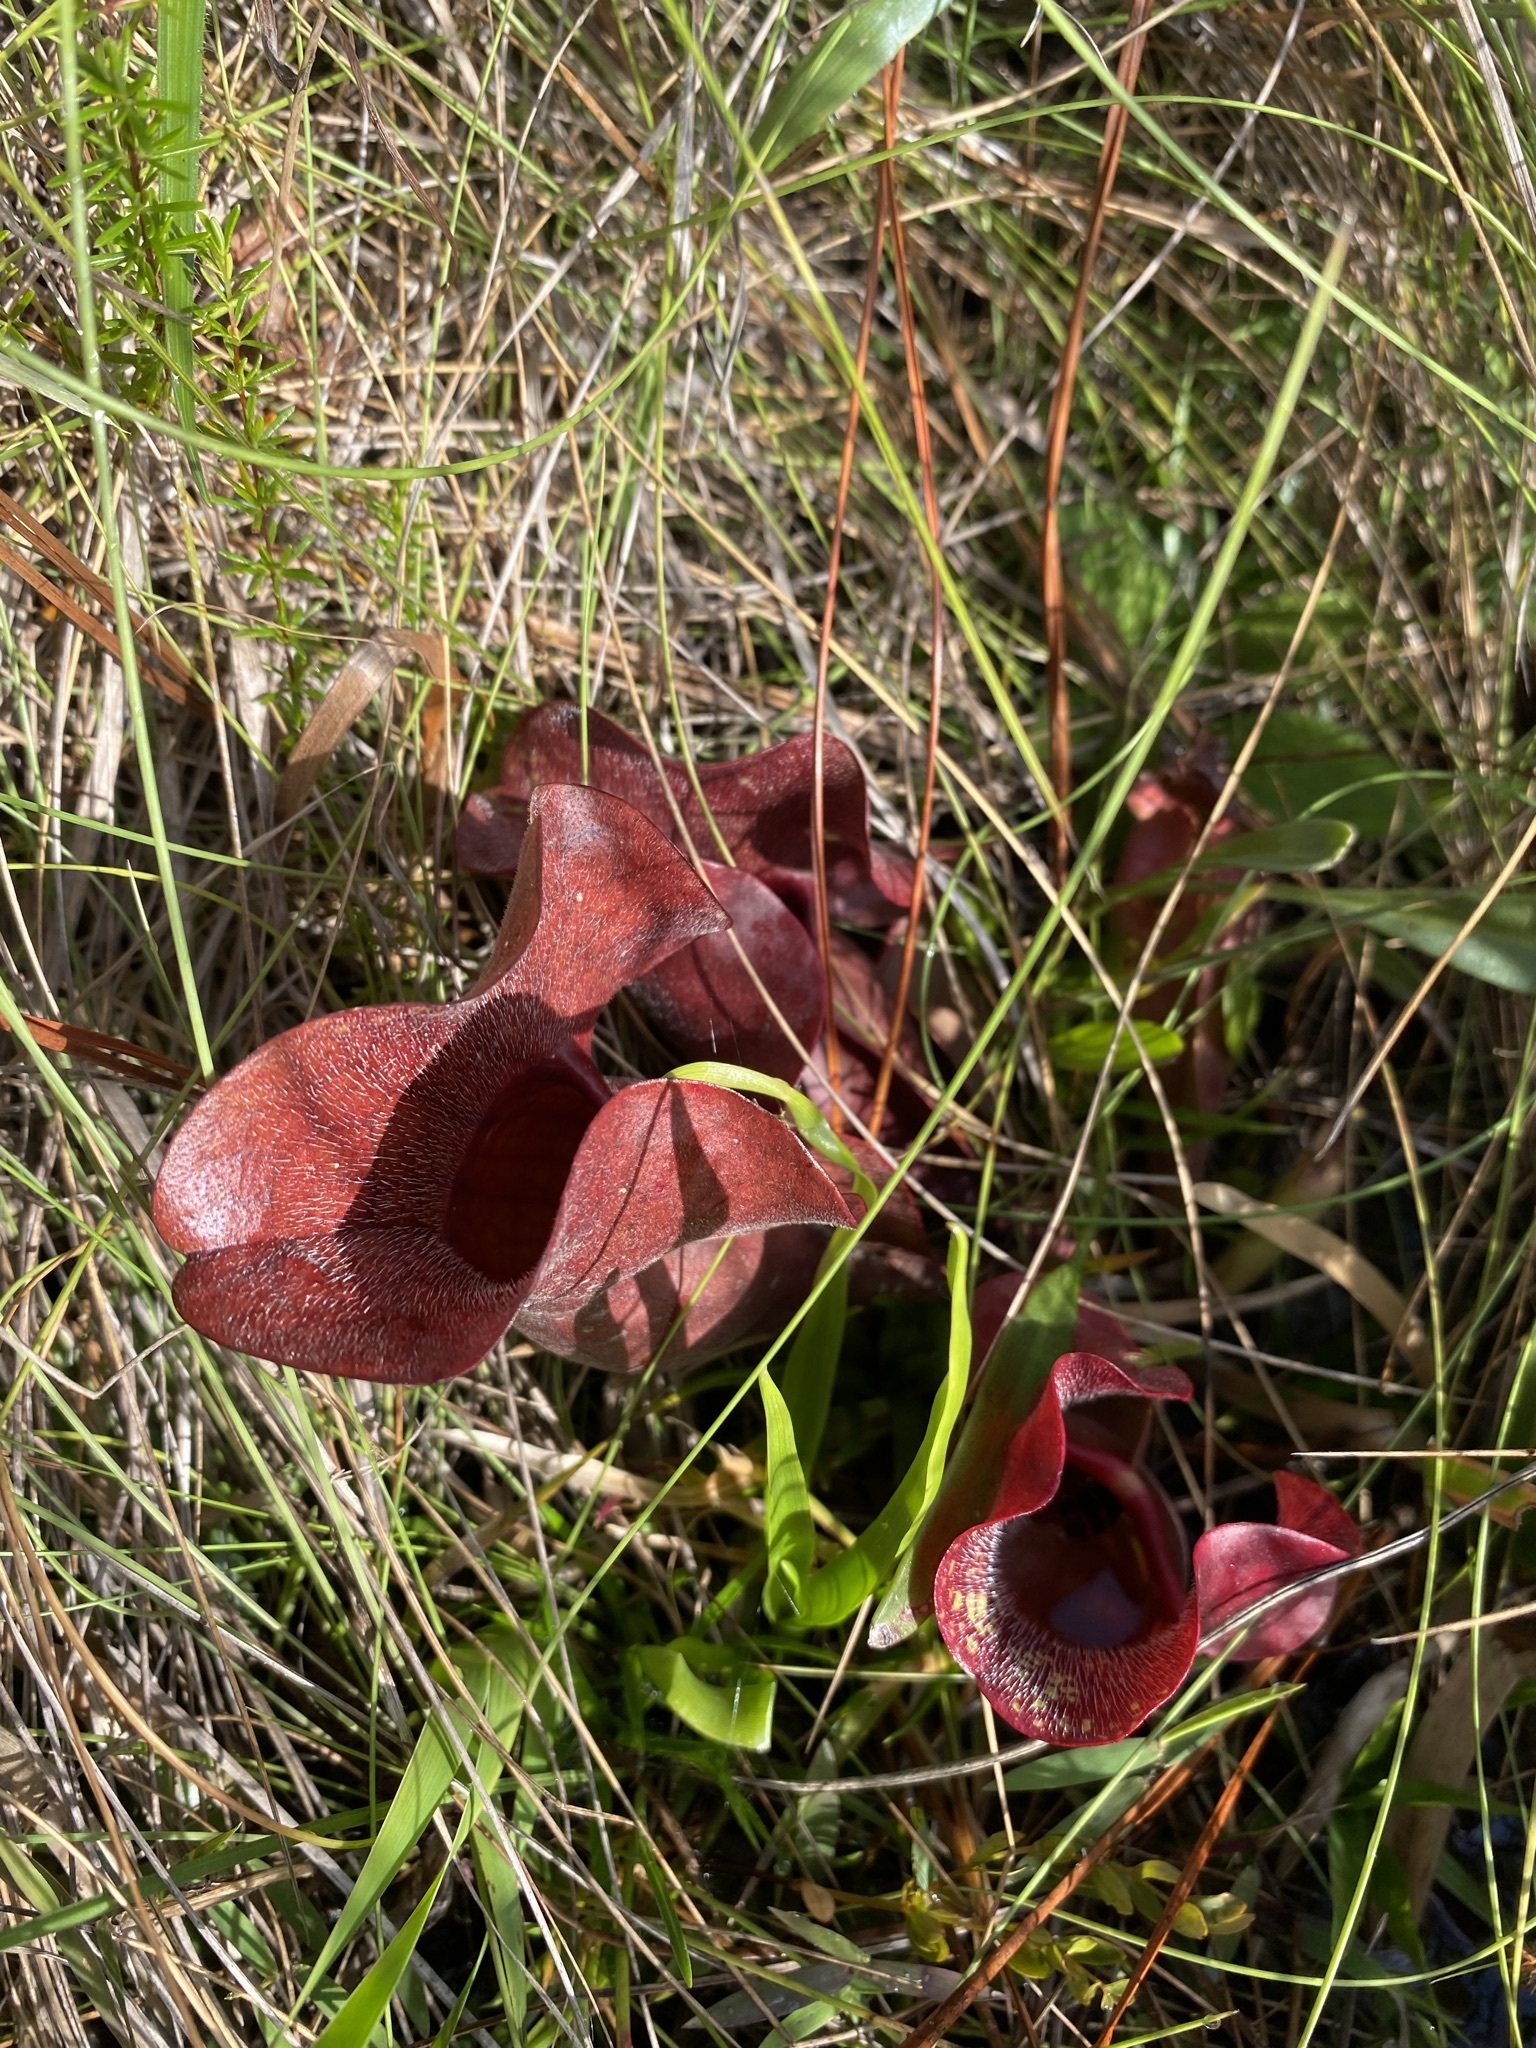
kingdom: Plantae
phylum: Tracheophyta
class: Magnoliopsida
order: Ericales
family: Sarraceniaceae
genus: Sarracenia
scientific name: Sarracenia rosea
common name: Pink pitcherplant
